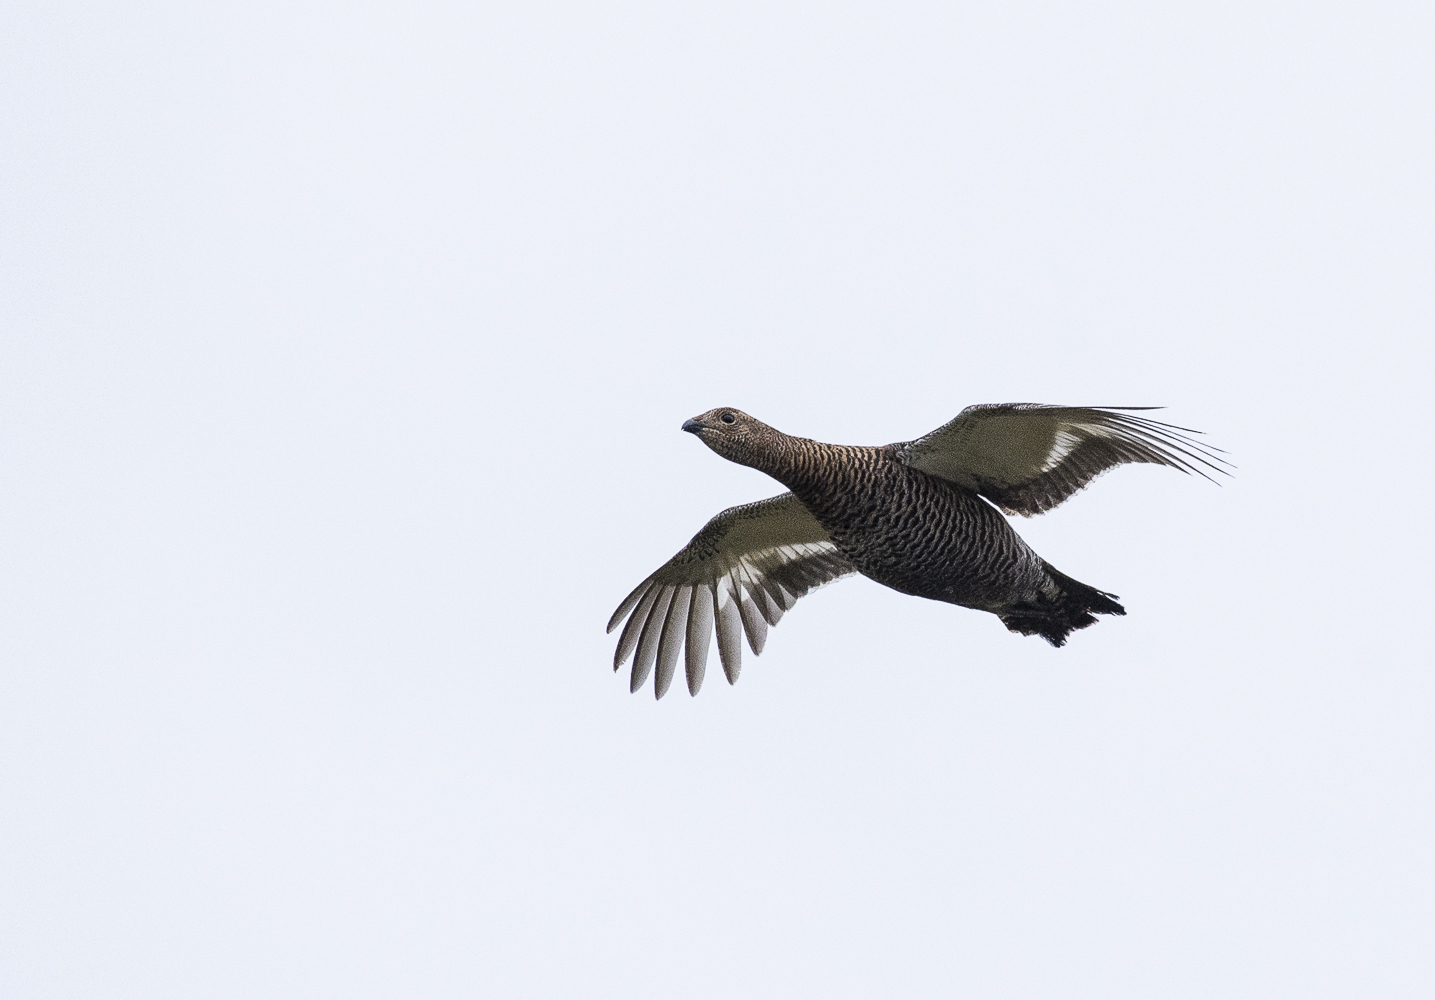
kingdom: Animalia
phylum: Chordata
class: Aves
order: Galliformes
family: Phasianidae
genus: Lyrurus
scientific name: Lyrurus tetrix
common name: Black grouse
